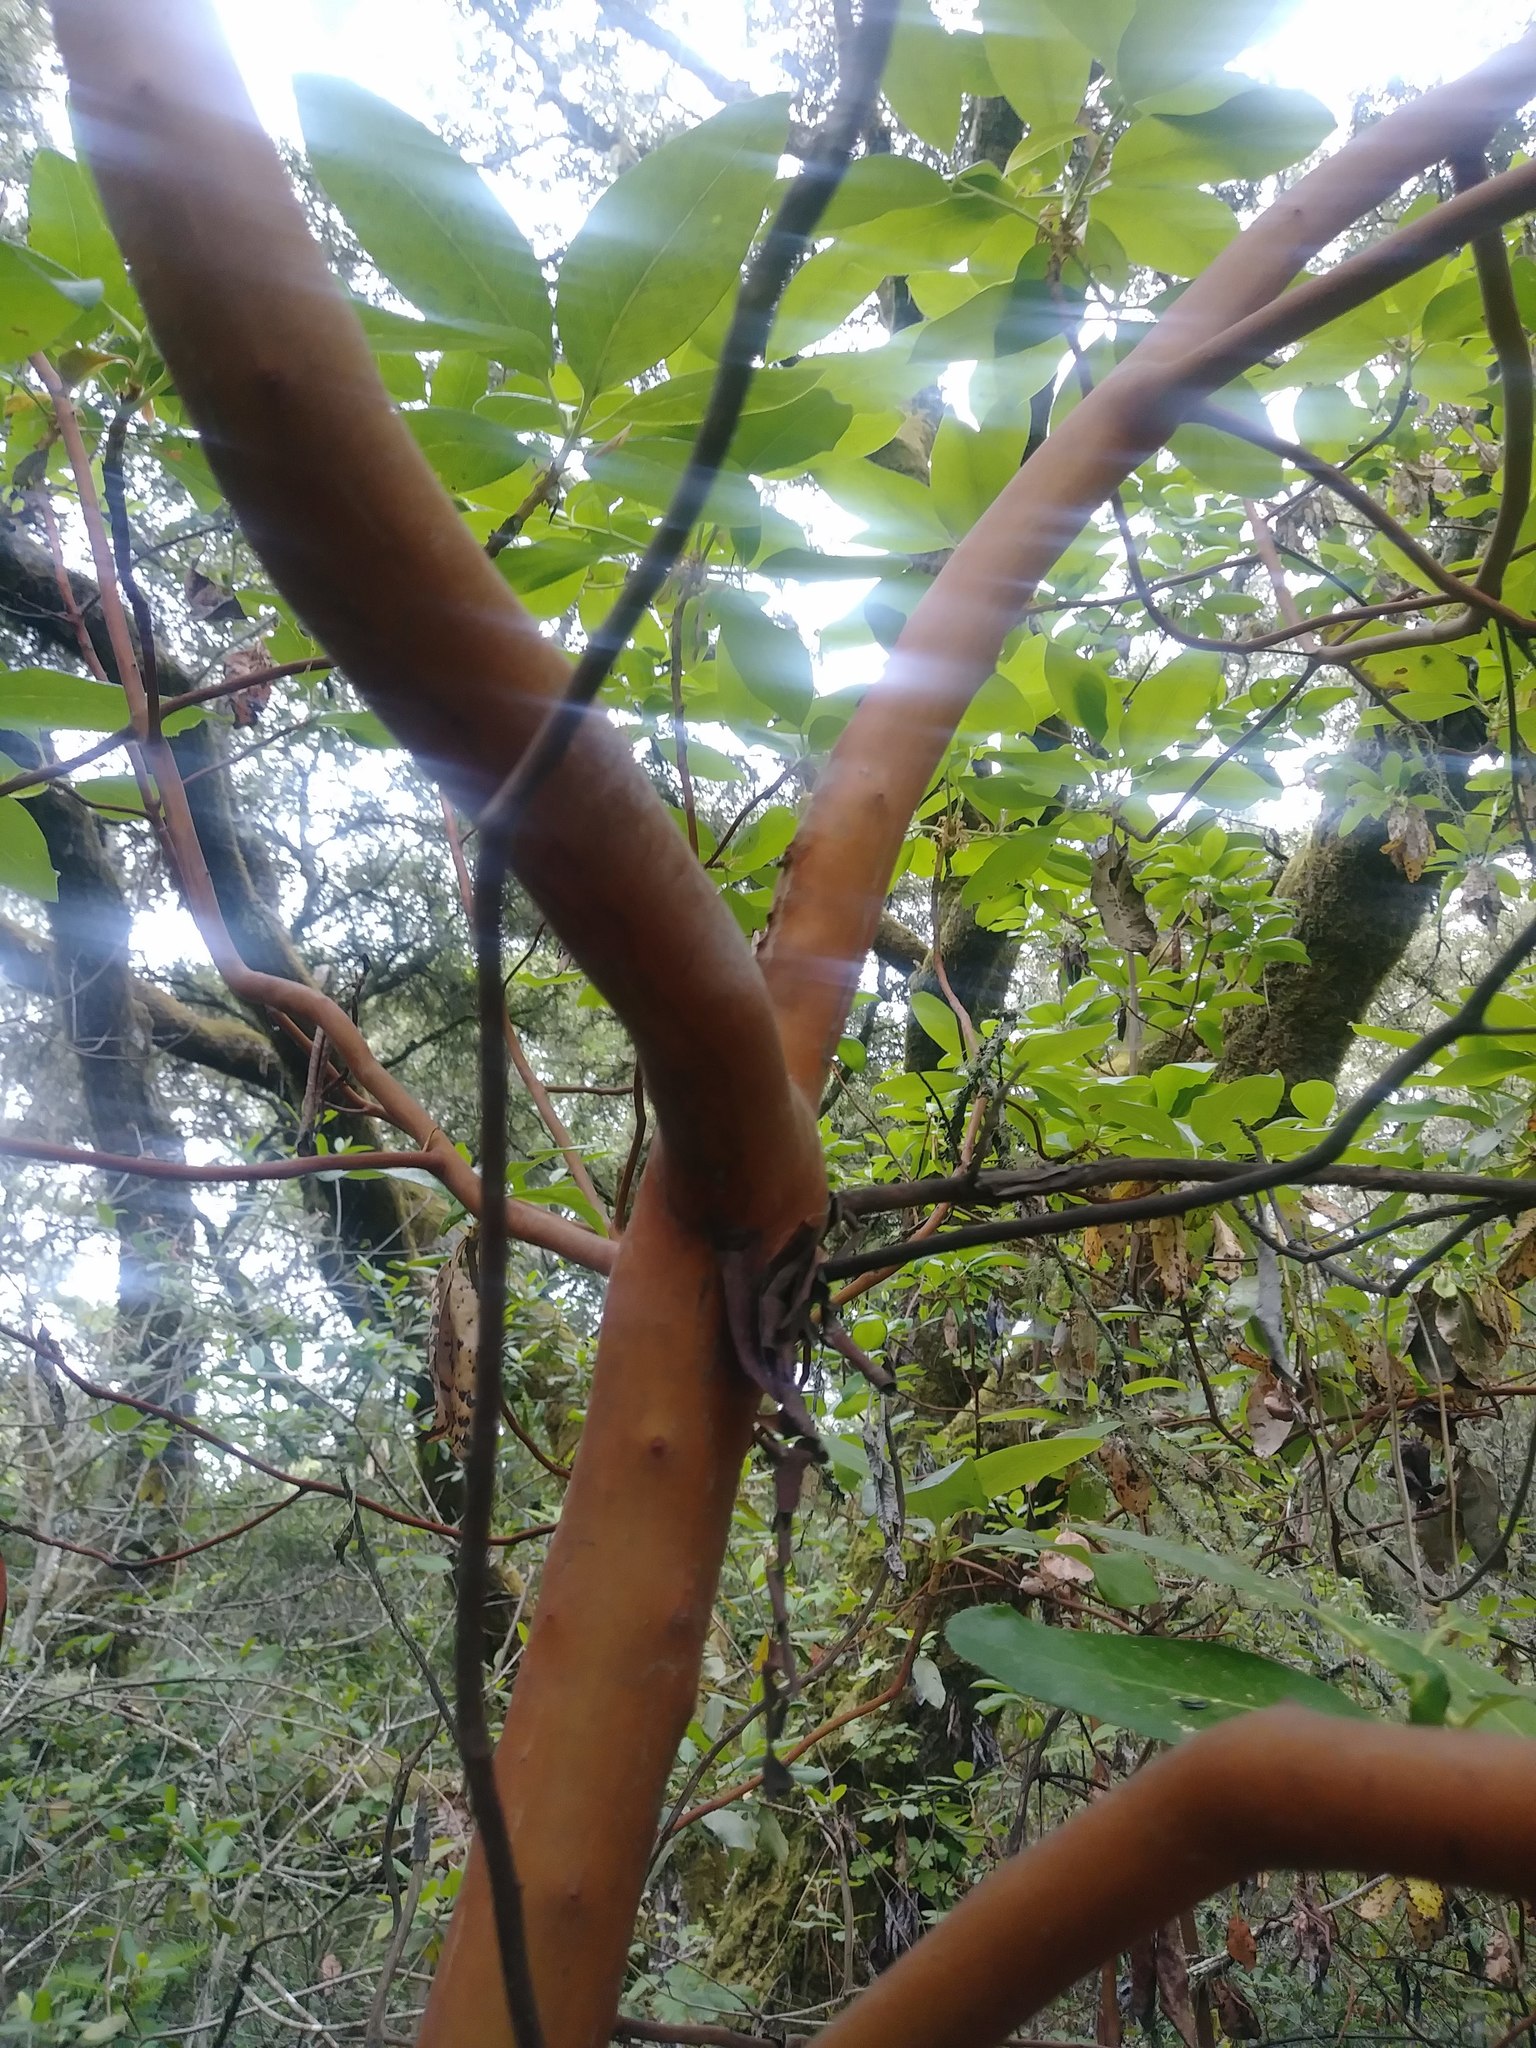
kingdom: Plantae
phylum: Tracheophyta
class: Magnoliopsida
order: Ericales
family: Ericaceae
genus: Arbutus
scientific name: Arbutus menziesii
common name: Pacific madrone
